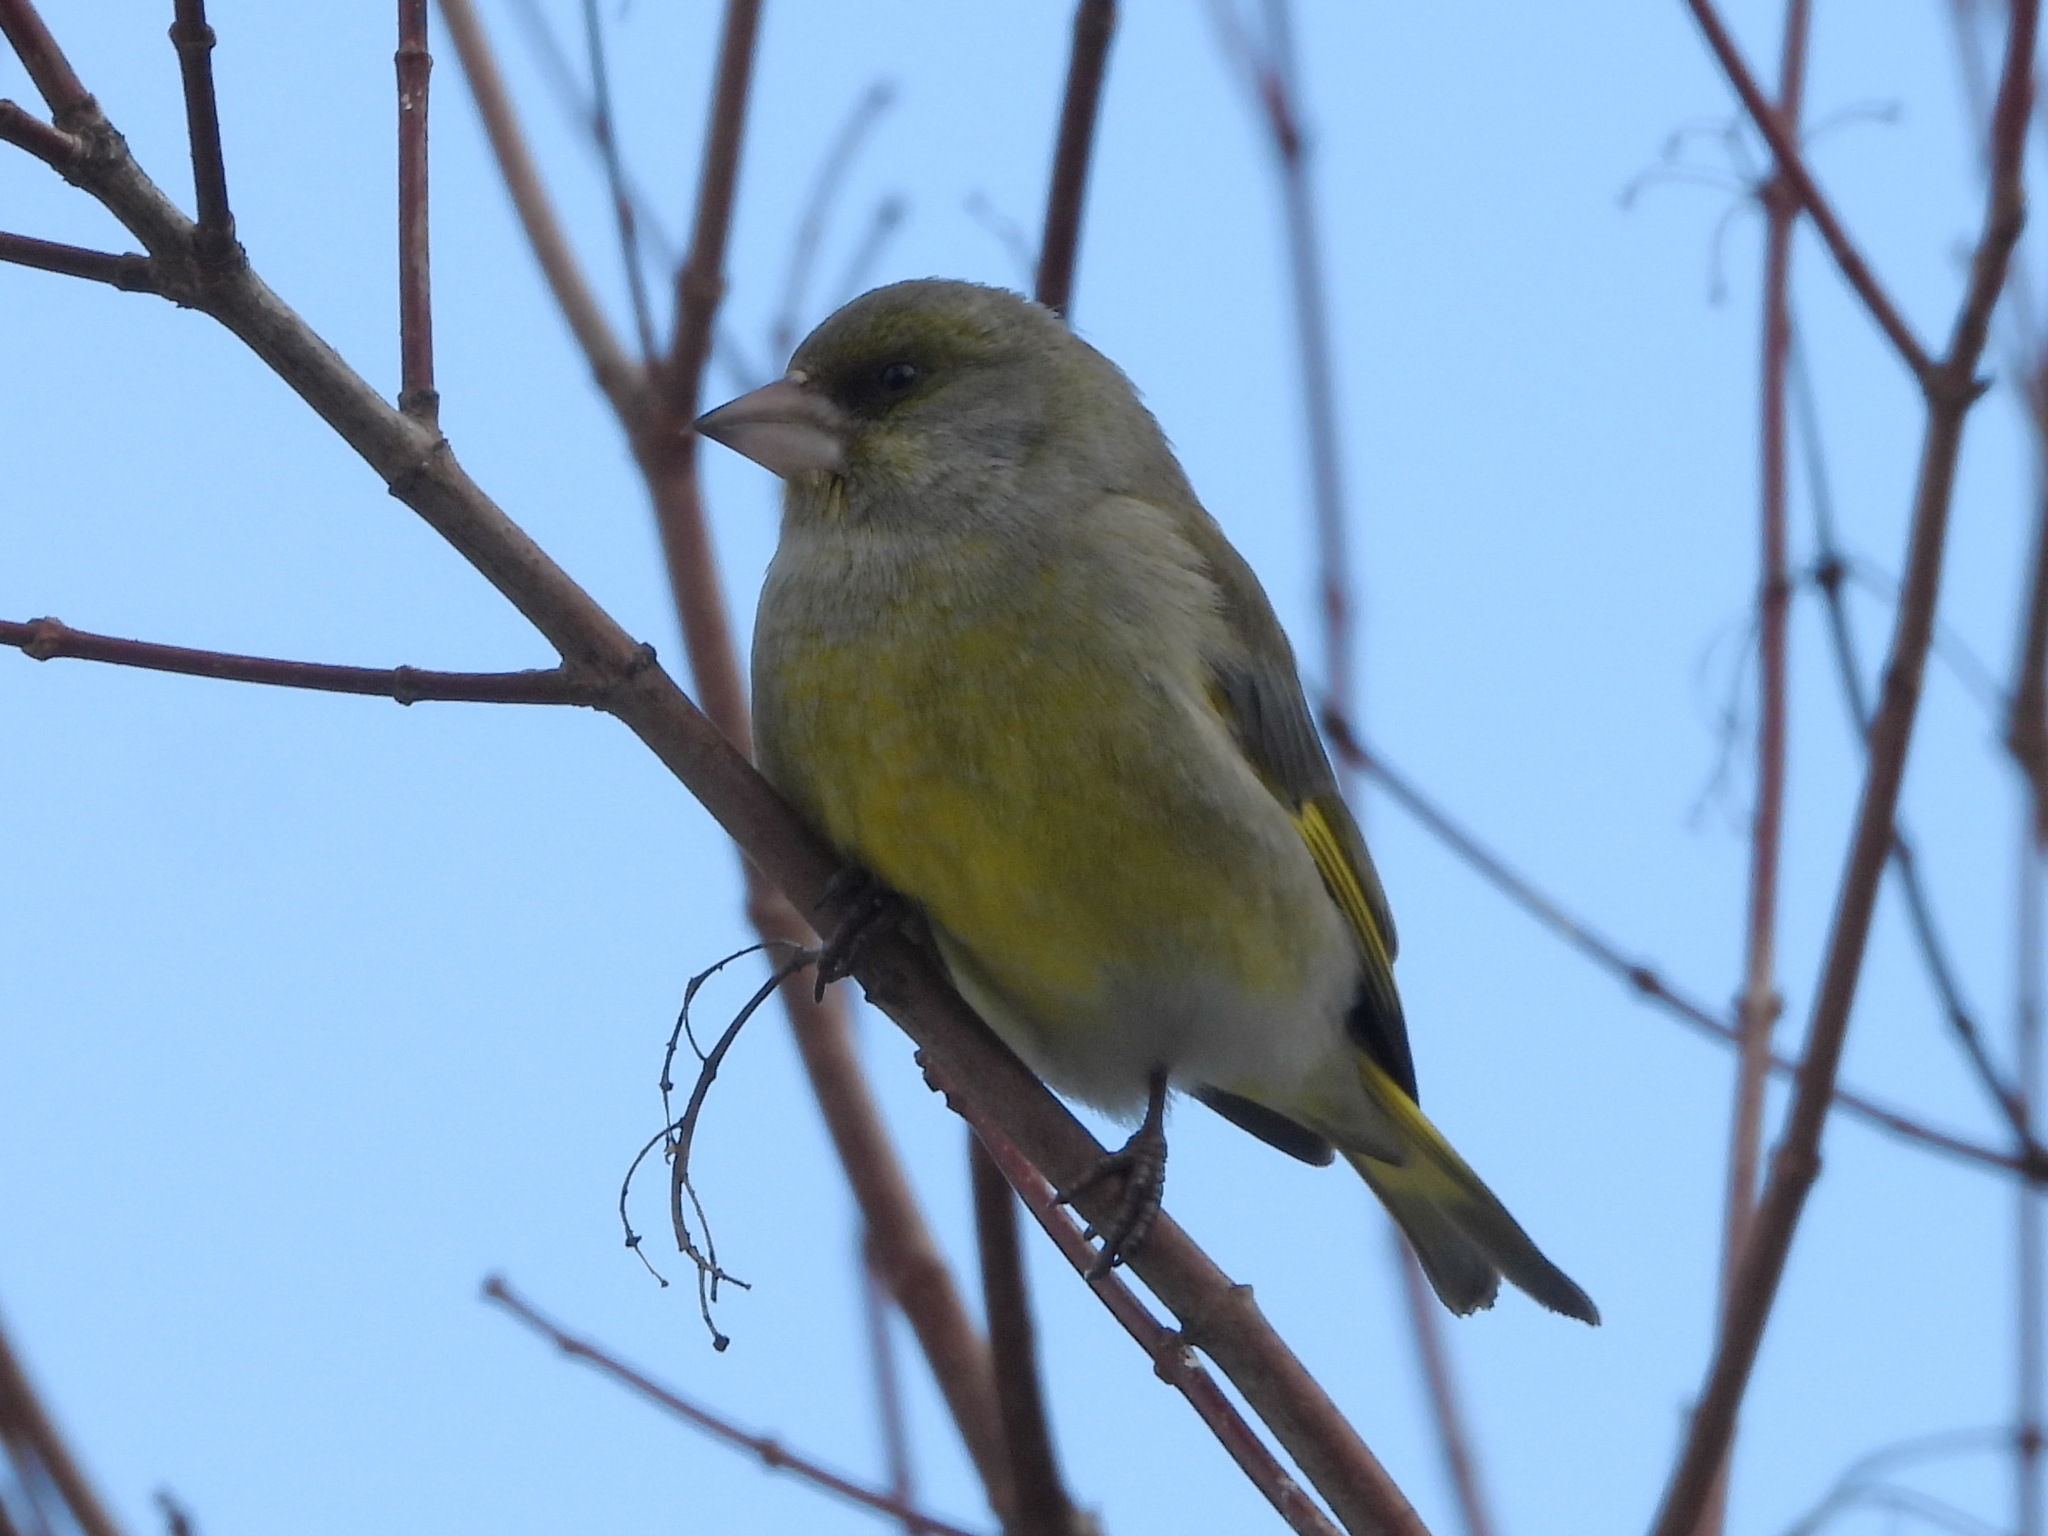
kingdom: Plantae
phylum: Tracheophyta
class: Liliopsida
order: Poales
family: Poaceae
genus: Chloris
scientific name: Chloris chloris
